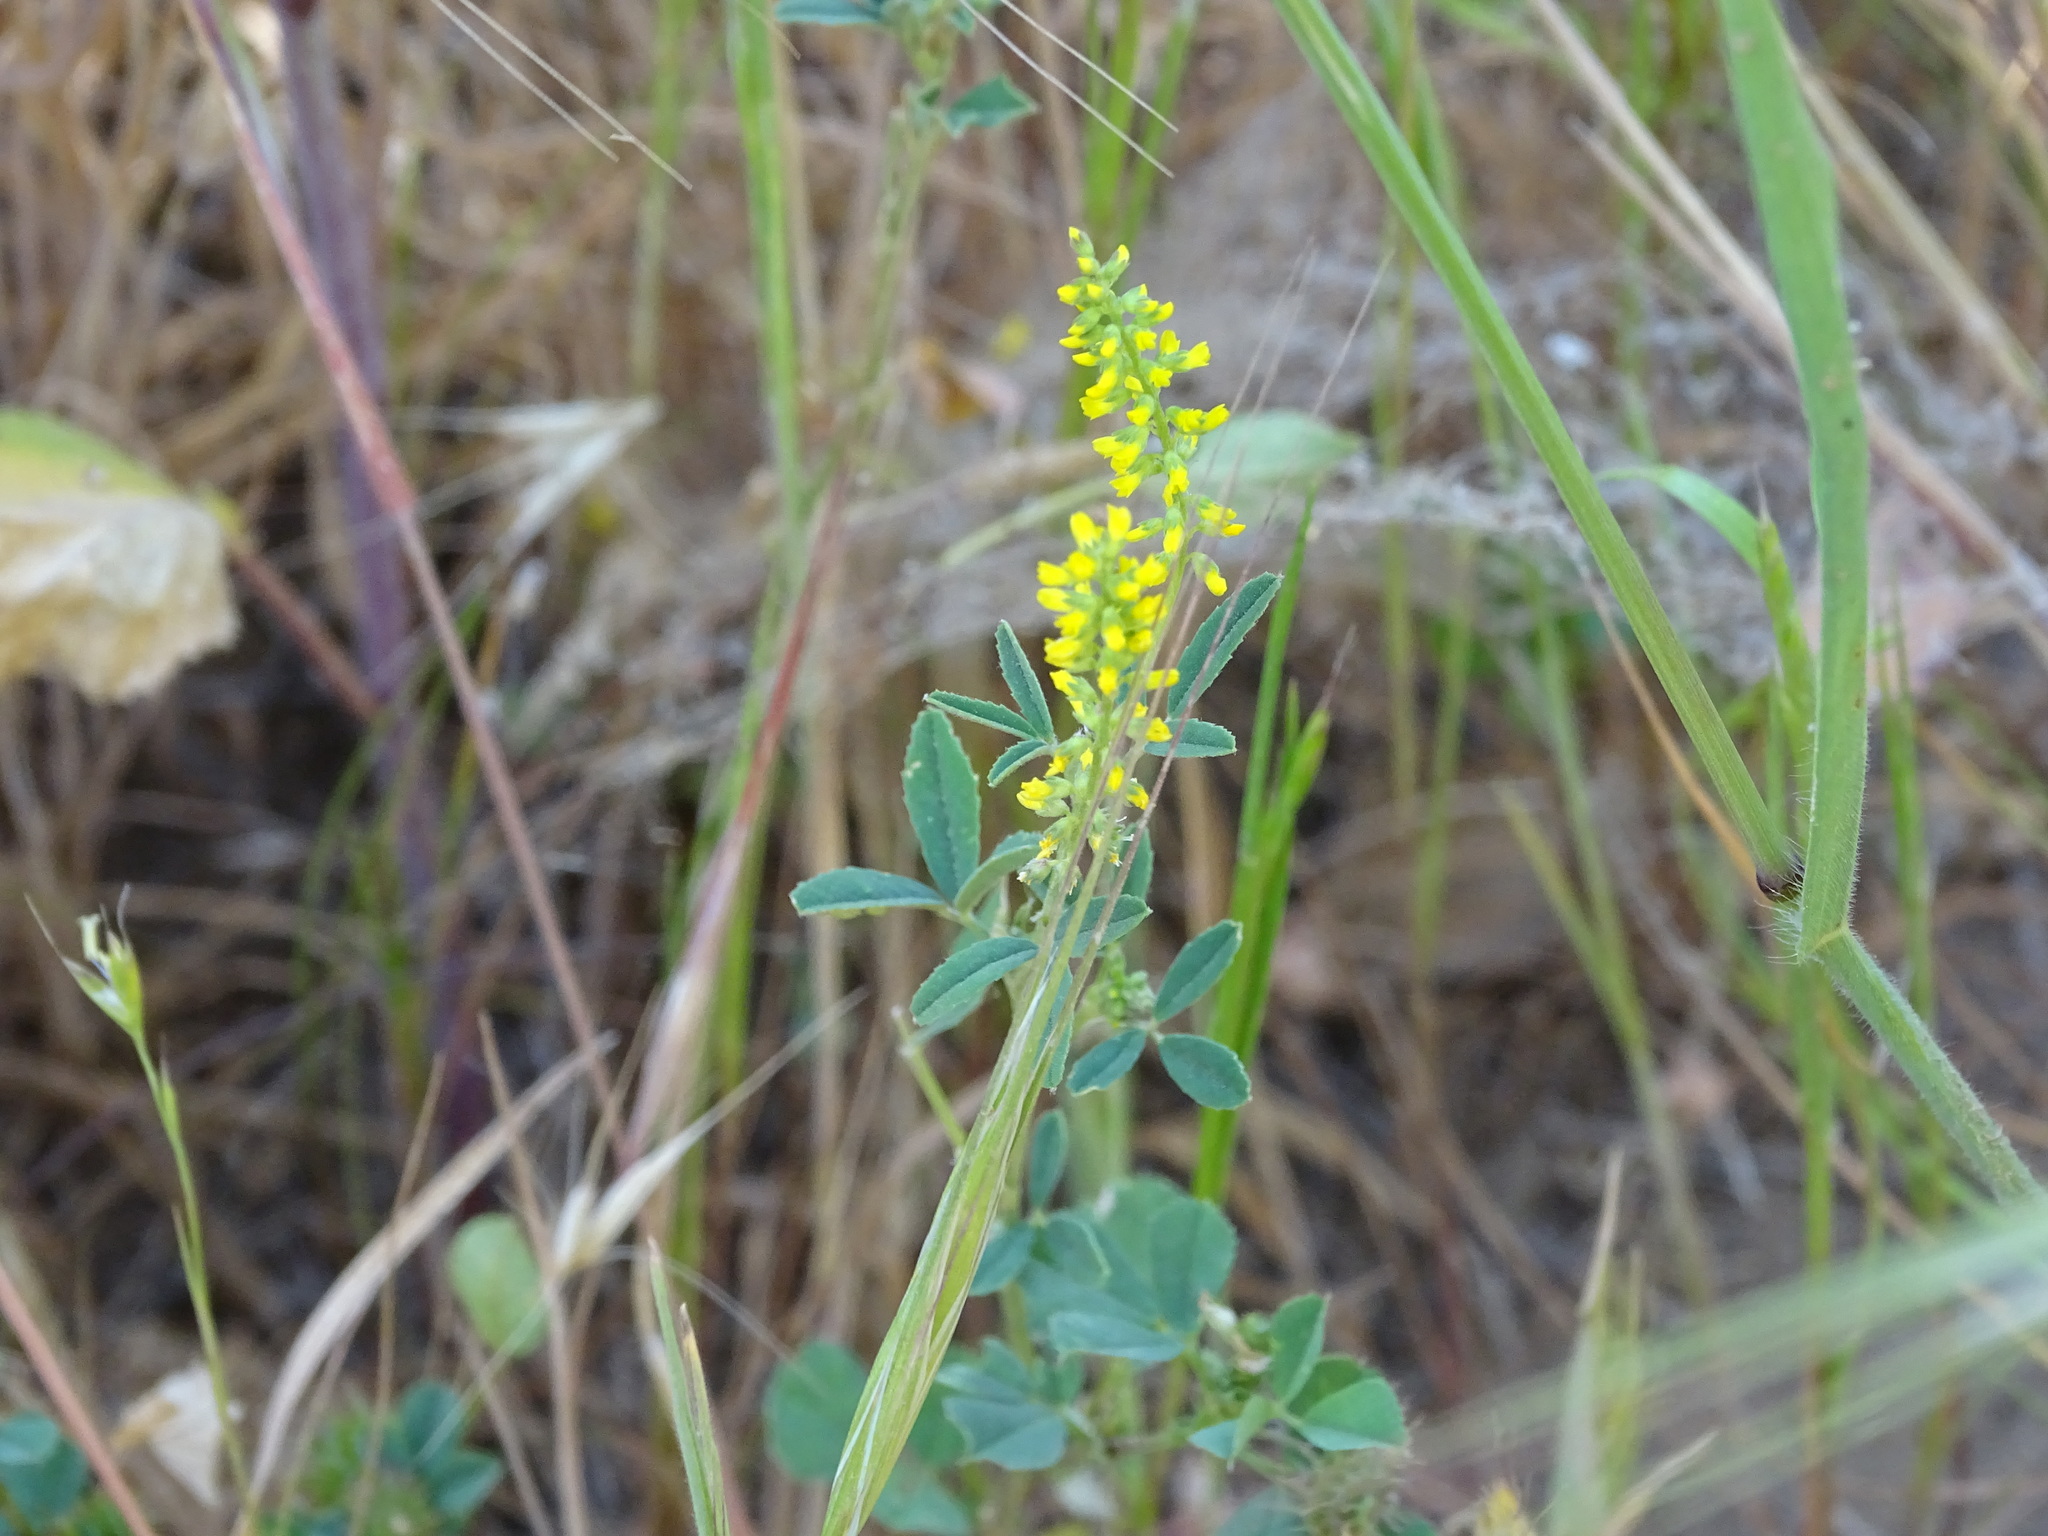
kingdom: Plantae
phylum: Tracheophyta
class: Magnoliopsida
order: Fabales
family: Fabaceae
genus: Melilotus
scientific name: Melilotus indicus
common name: Small melilot
